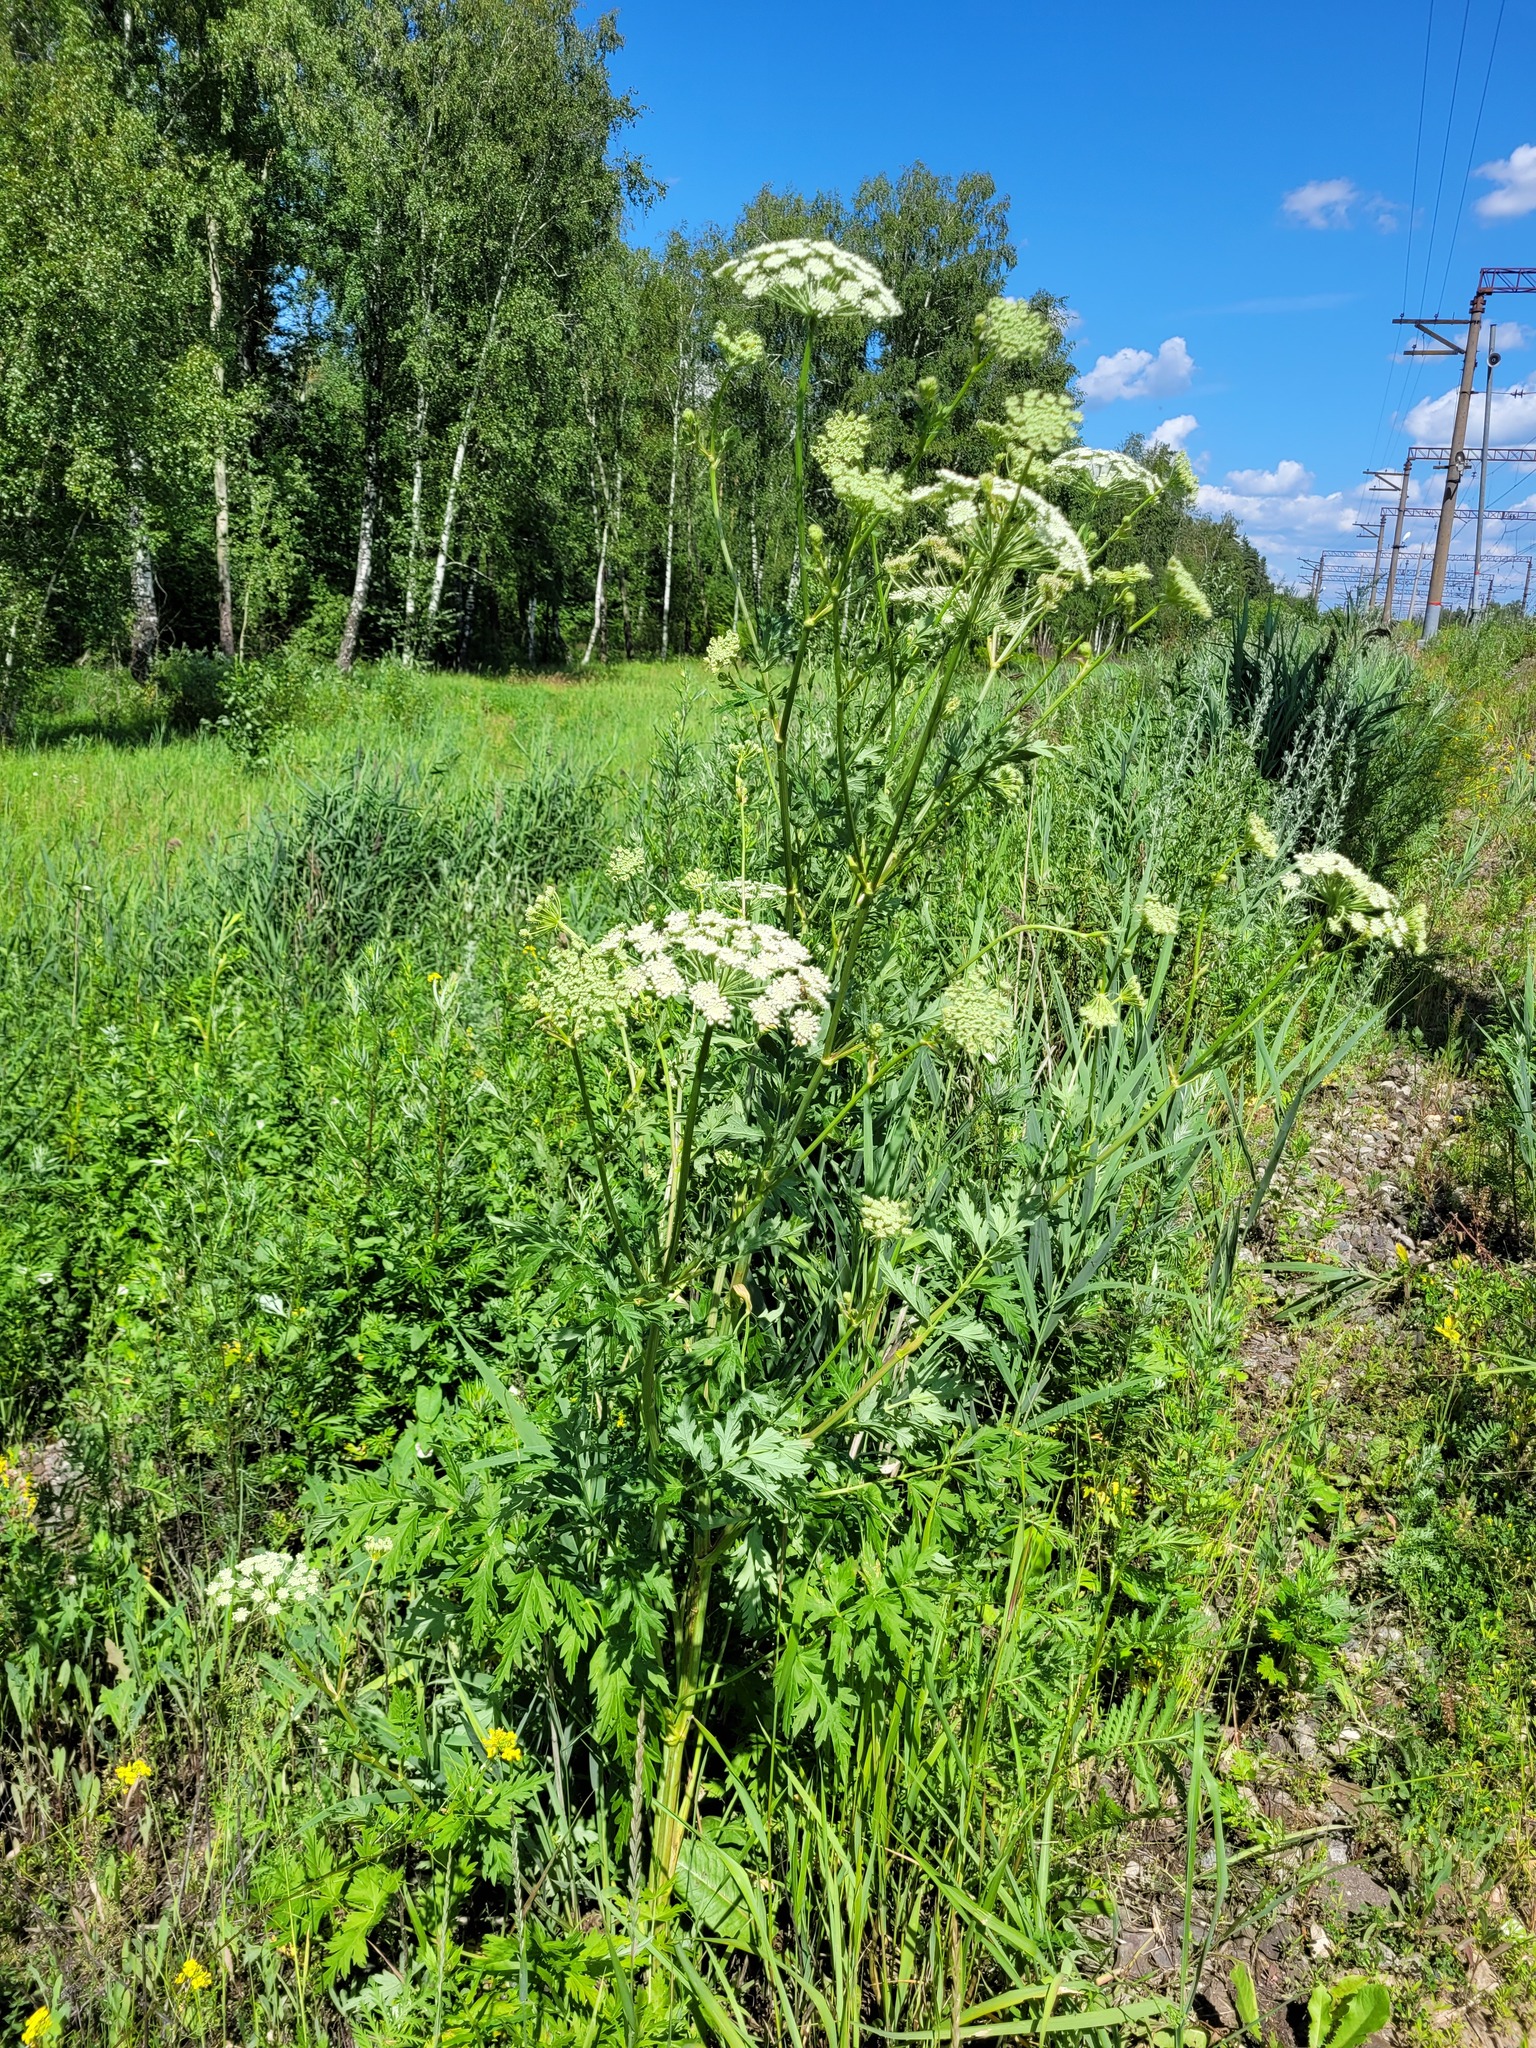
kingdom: Plantae
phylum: Tracheophyta
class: Magnoliopsida
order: Apiales
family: Apiaceae
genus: Seseli
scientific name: Seseli libanotis
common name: Mooncarrot
